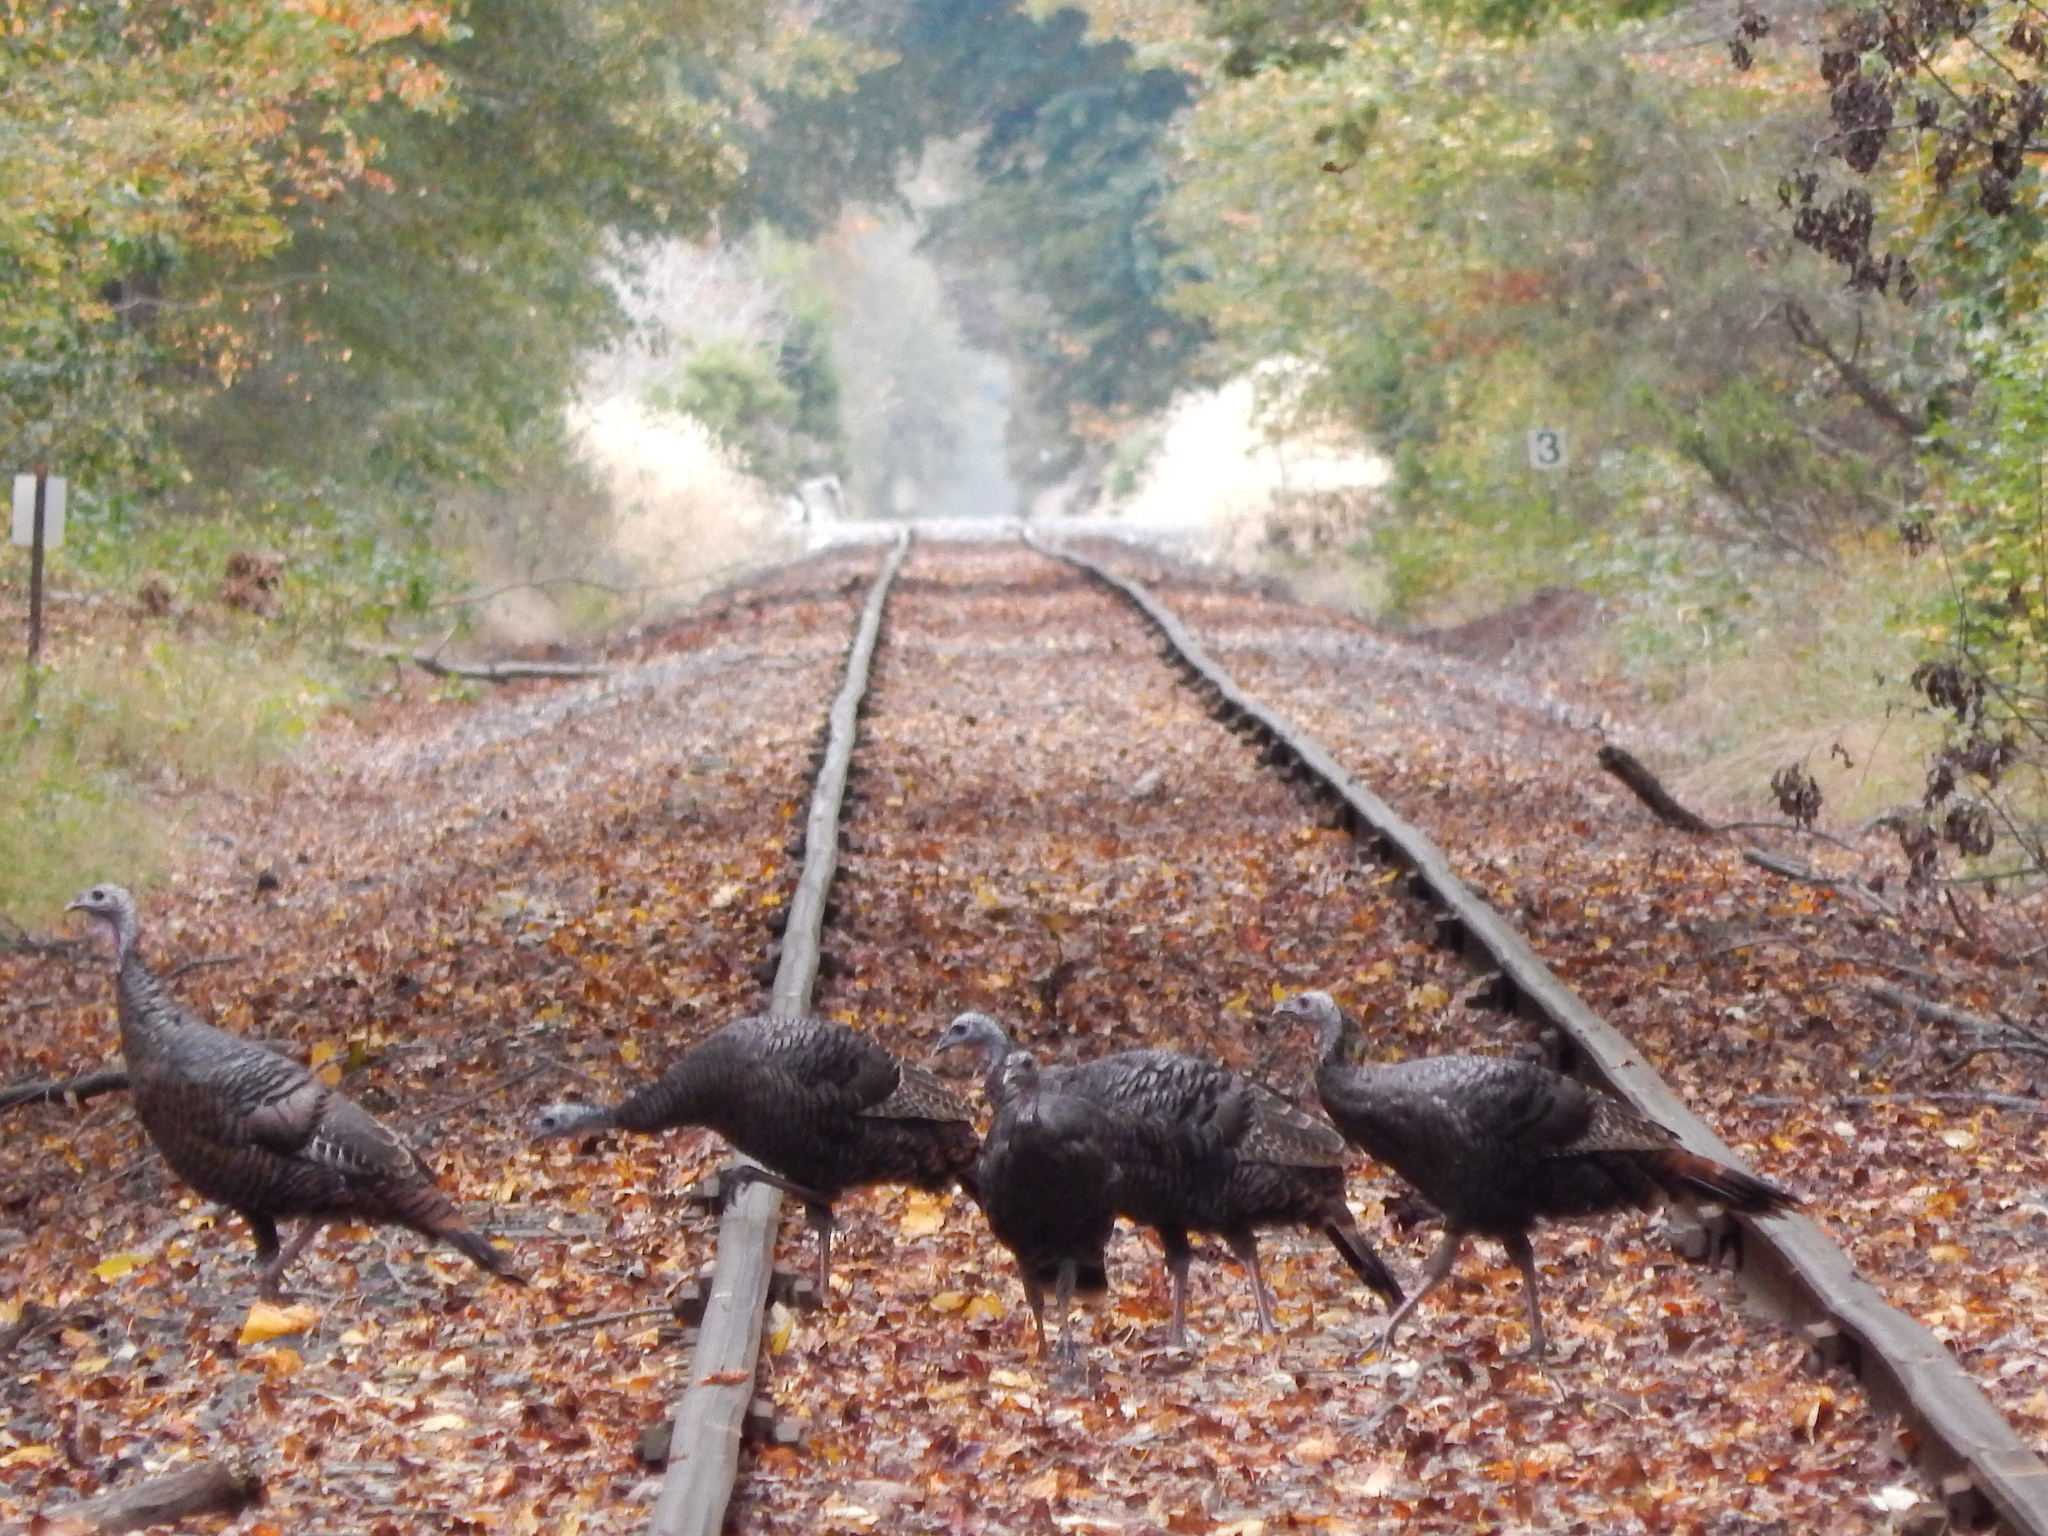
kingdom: Animalia
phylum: Chordata
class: Aves
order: Galliformes
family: Phasianidae
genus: Meleagris
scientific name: Meleagris gallopavo
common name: Wild turkey
